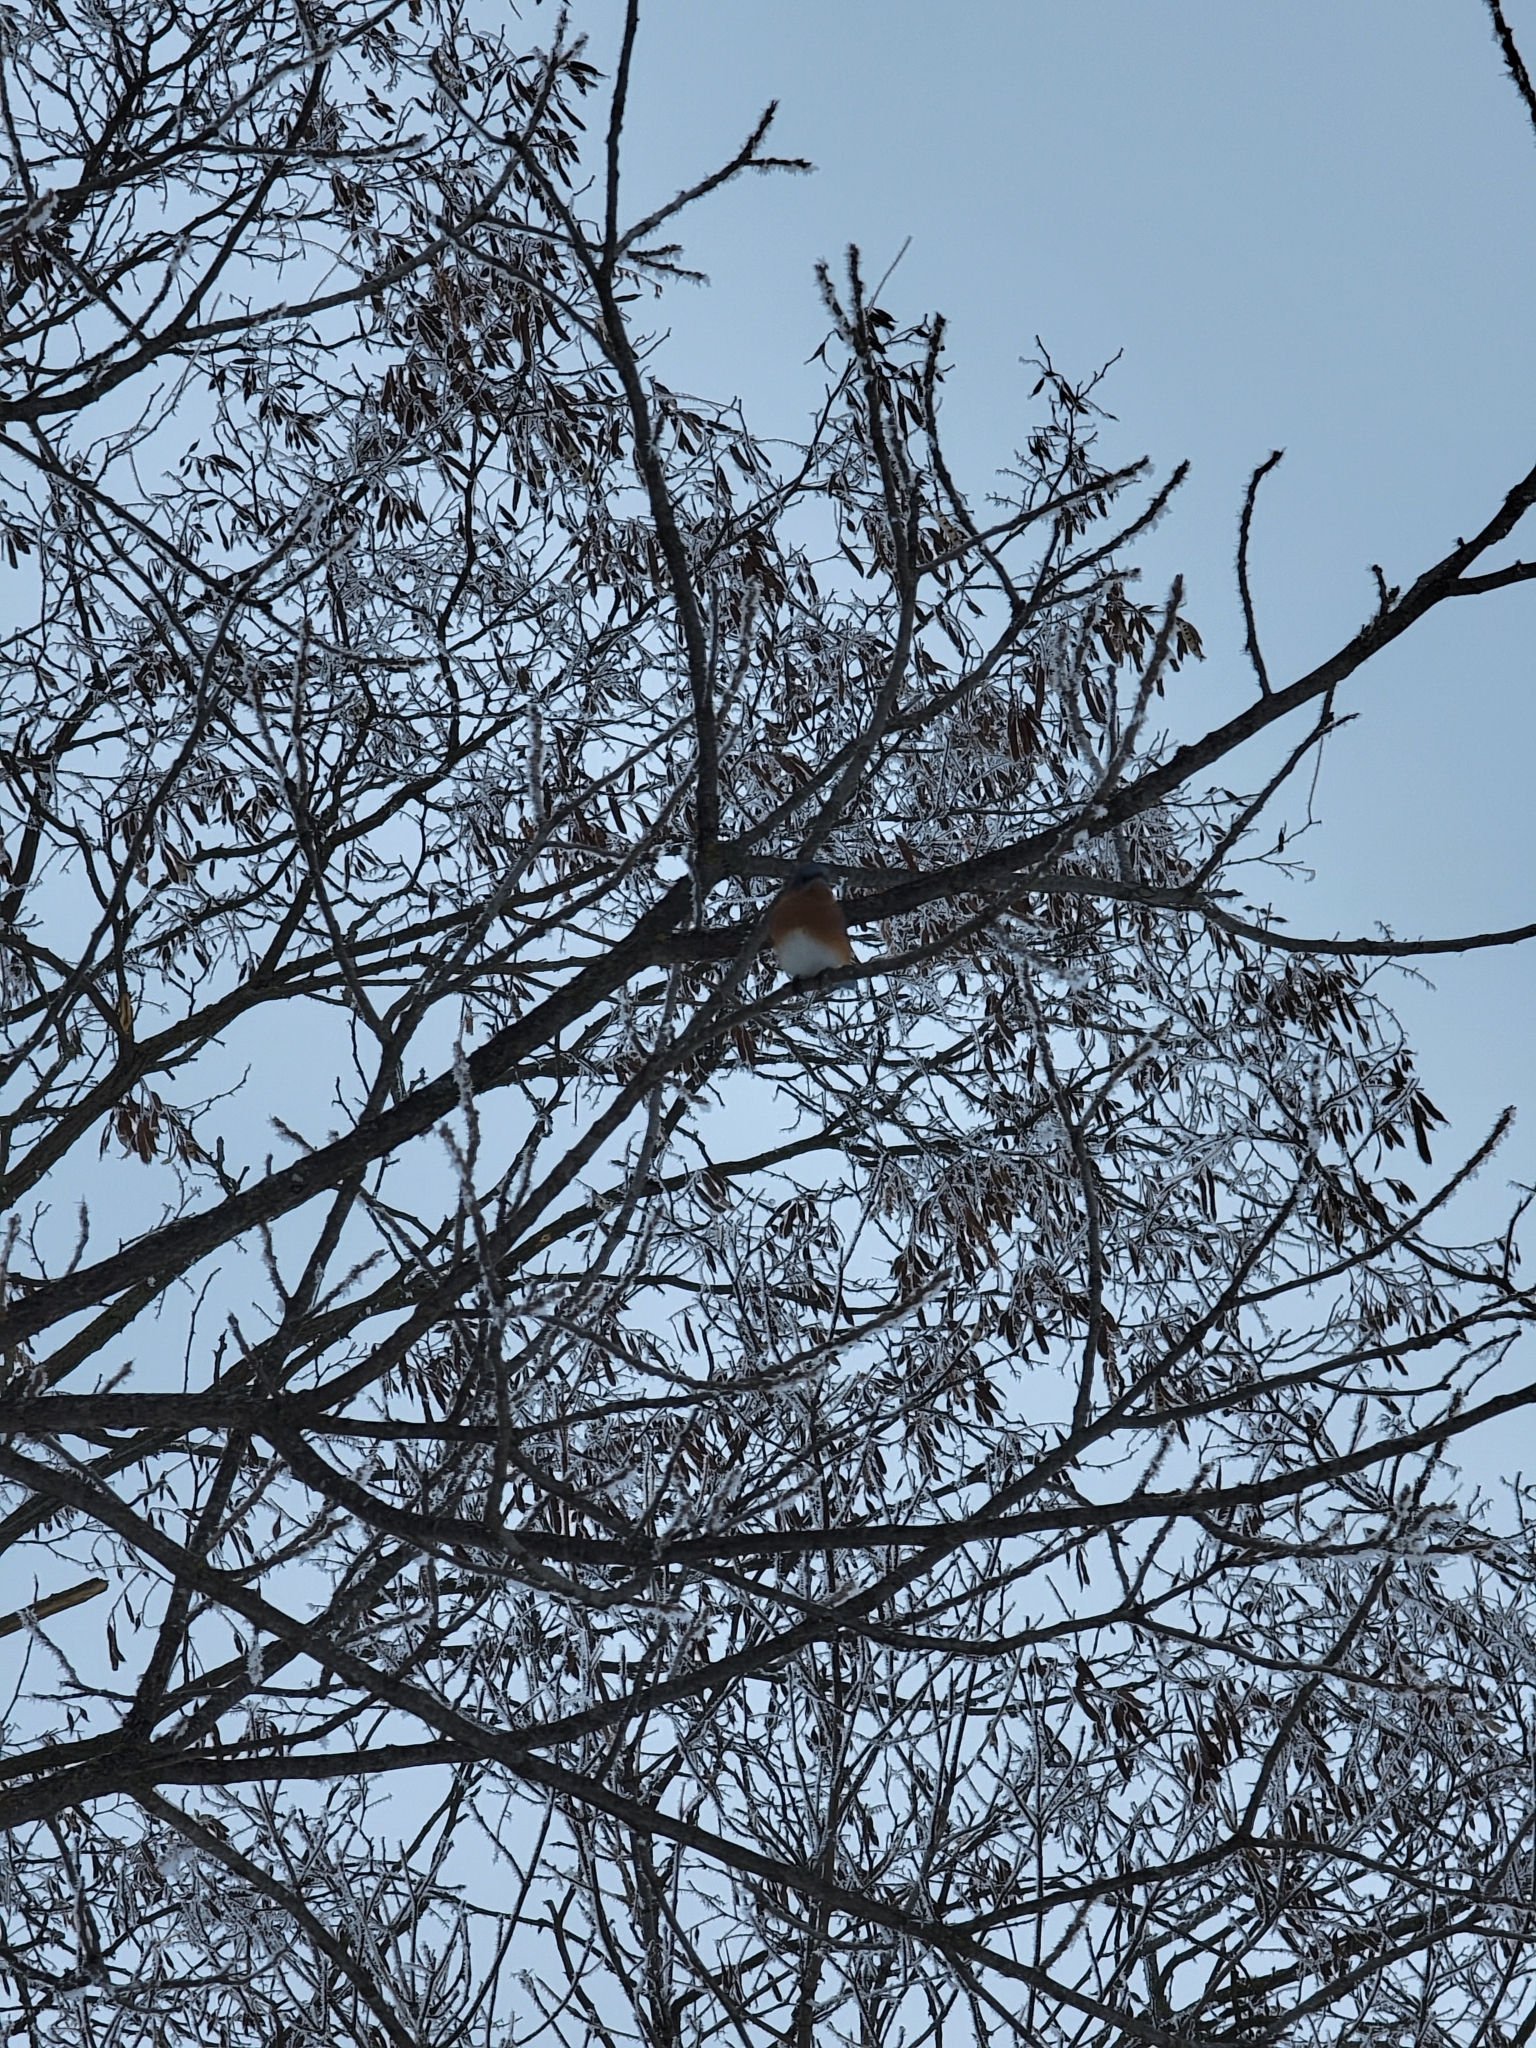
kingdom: Animalia
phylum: Chordata
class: Aves
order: Passeriformes
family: Turdidae
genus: Sialia
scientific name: Sialia sialis
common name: Eastern bluebird
